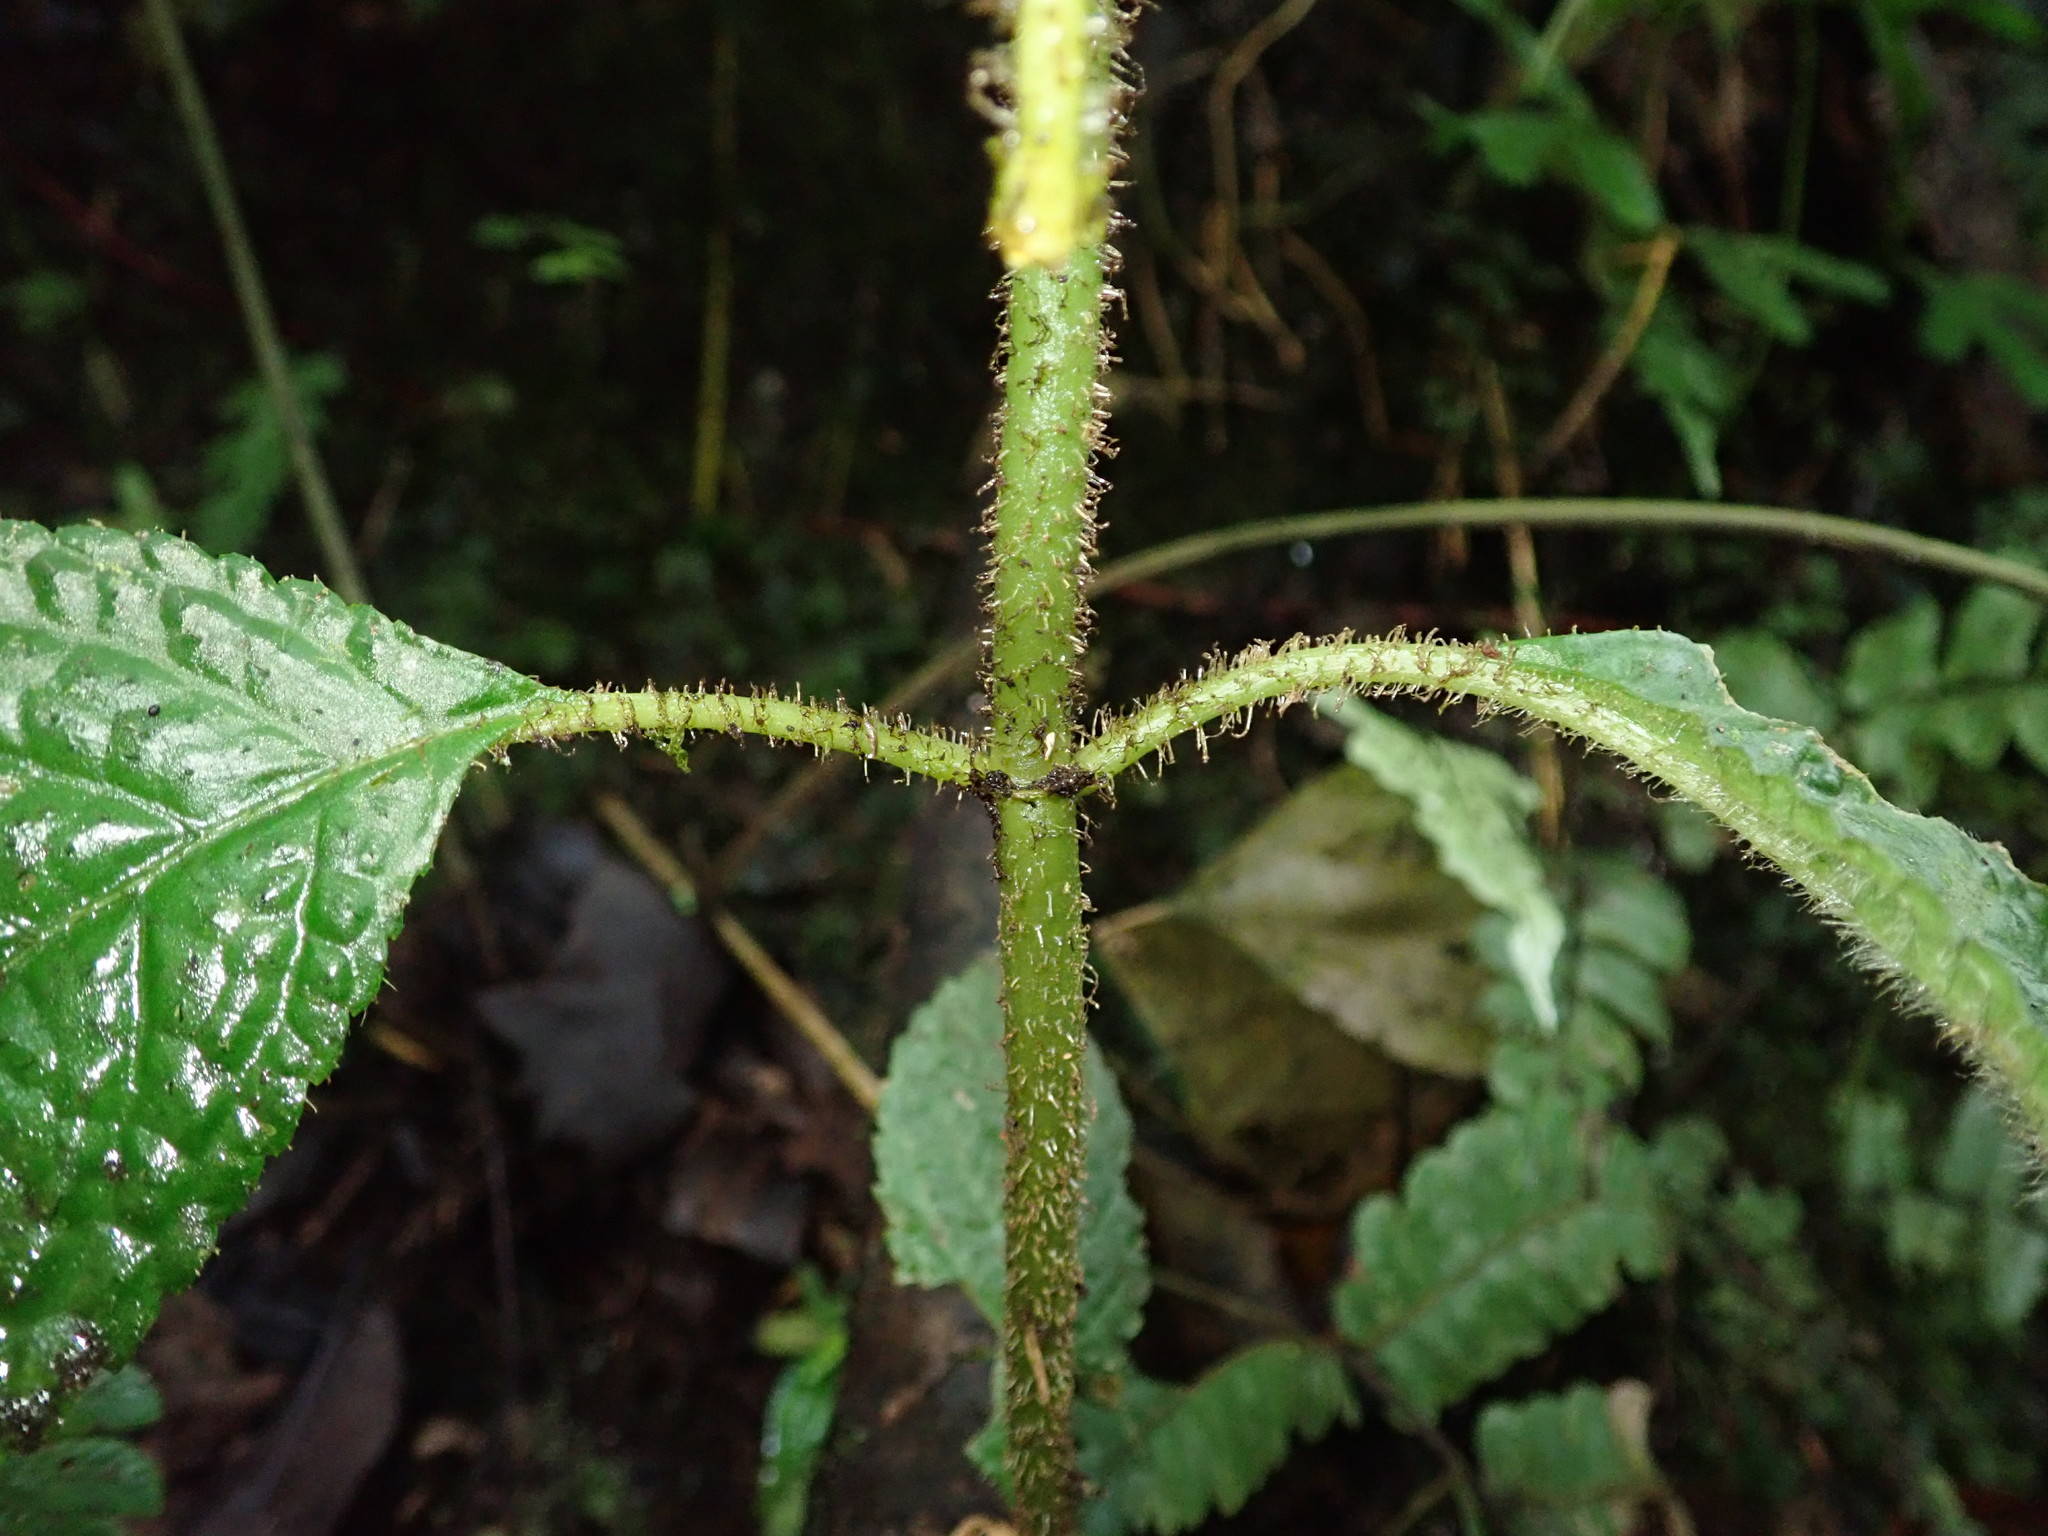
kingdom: Plantae
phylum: Tracheophyta
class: Magnoliopsida
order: Lamiales
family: Gesneriaceae
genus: Pearcea
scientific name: Pearcea schimpfii
